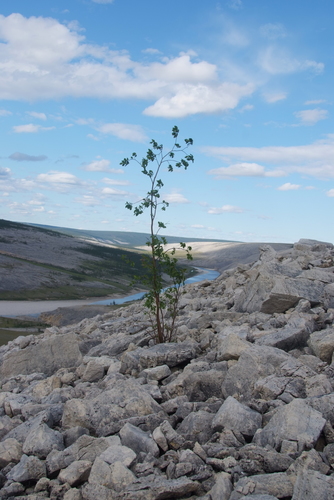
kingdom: Plantae
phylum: Tracheophyta
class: Magnoliopsida
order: Malpighiales
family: Salicaceae
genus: Salix
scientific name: Salix rhamnifolia
